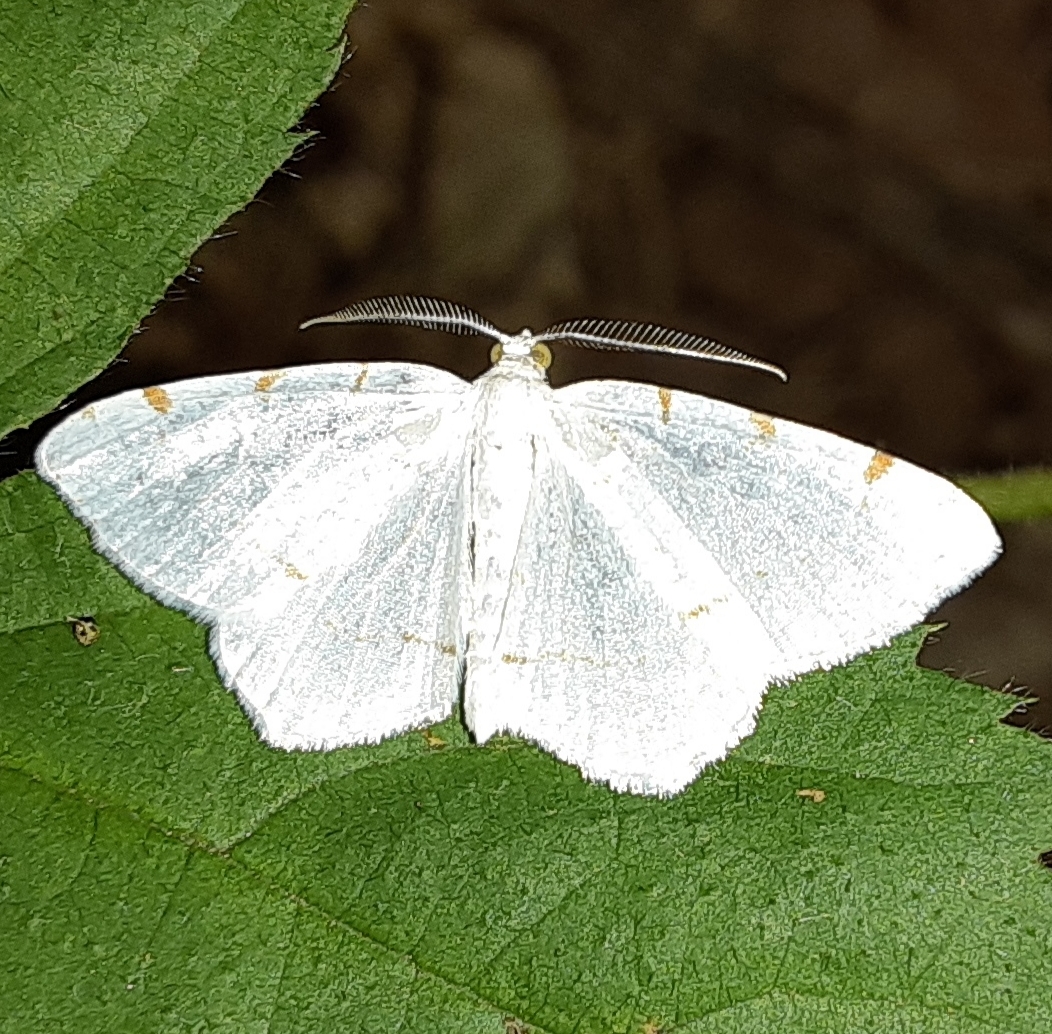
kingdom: Animalia
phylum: Arthropoda
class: Insecta
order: Lepidoptera
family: Geometridae
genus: Macaria
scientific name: Macaria pustularia
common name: Lesser maple spanworm moth
